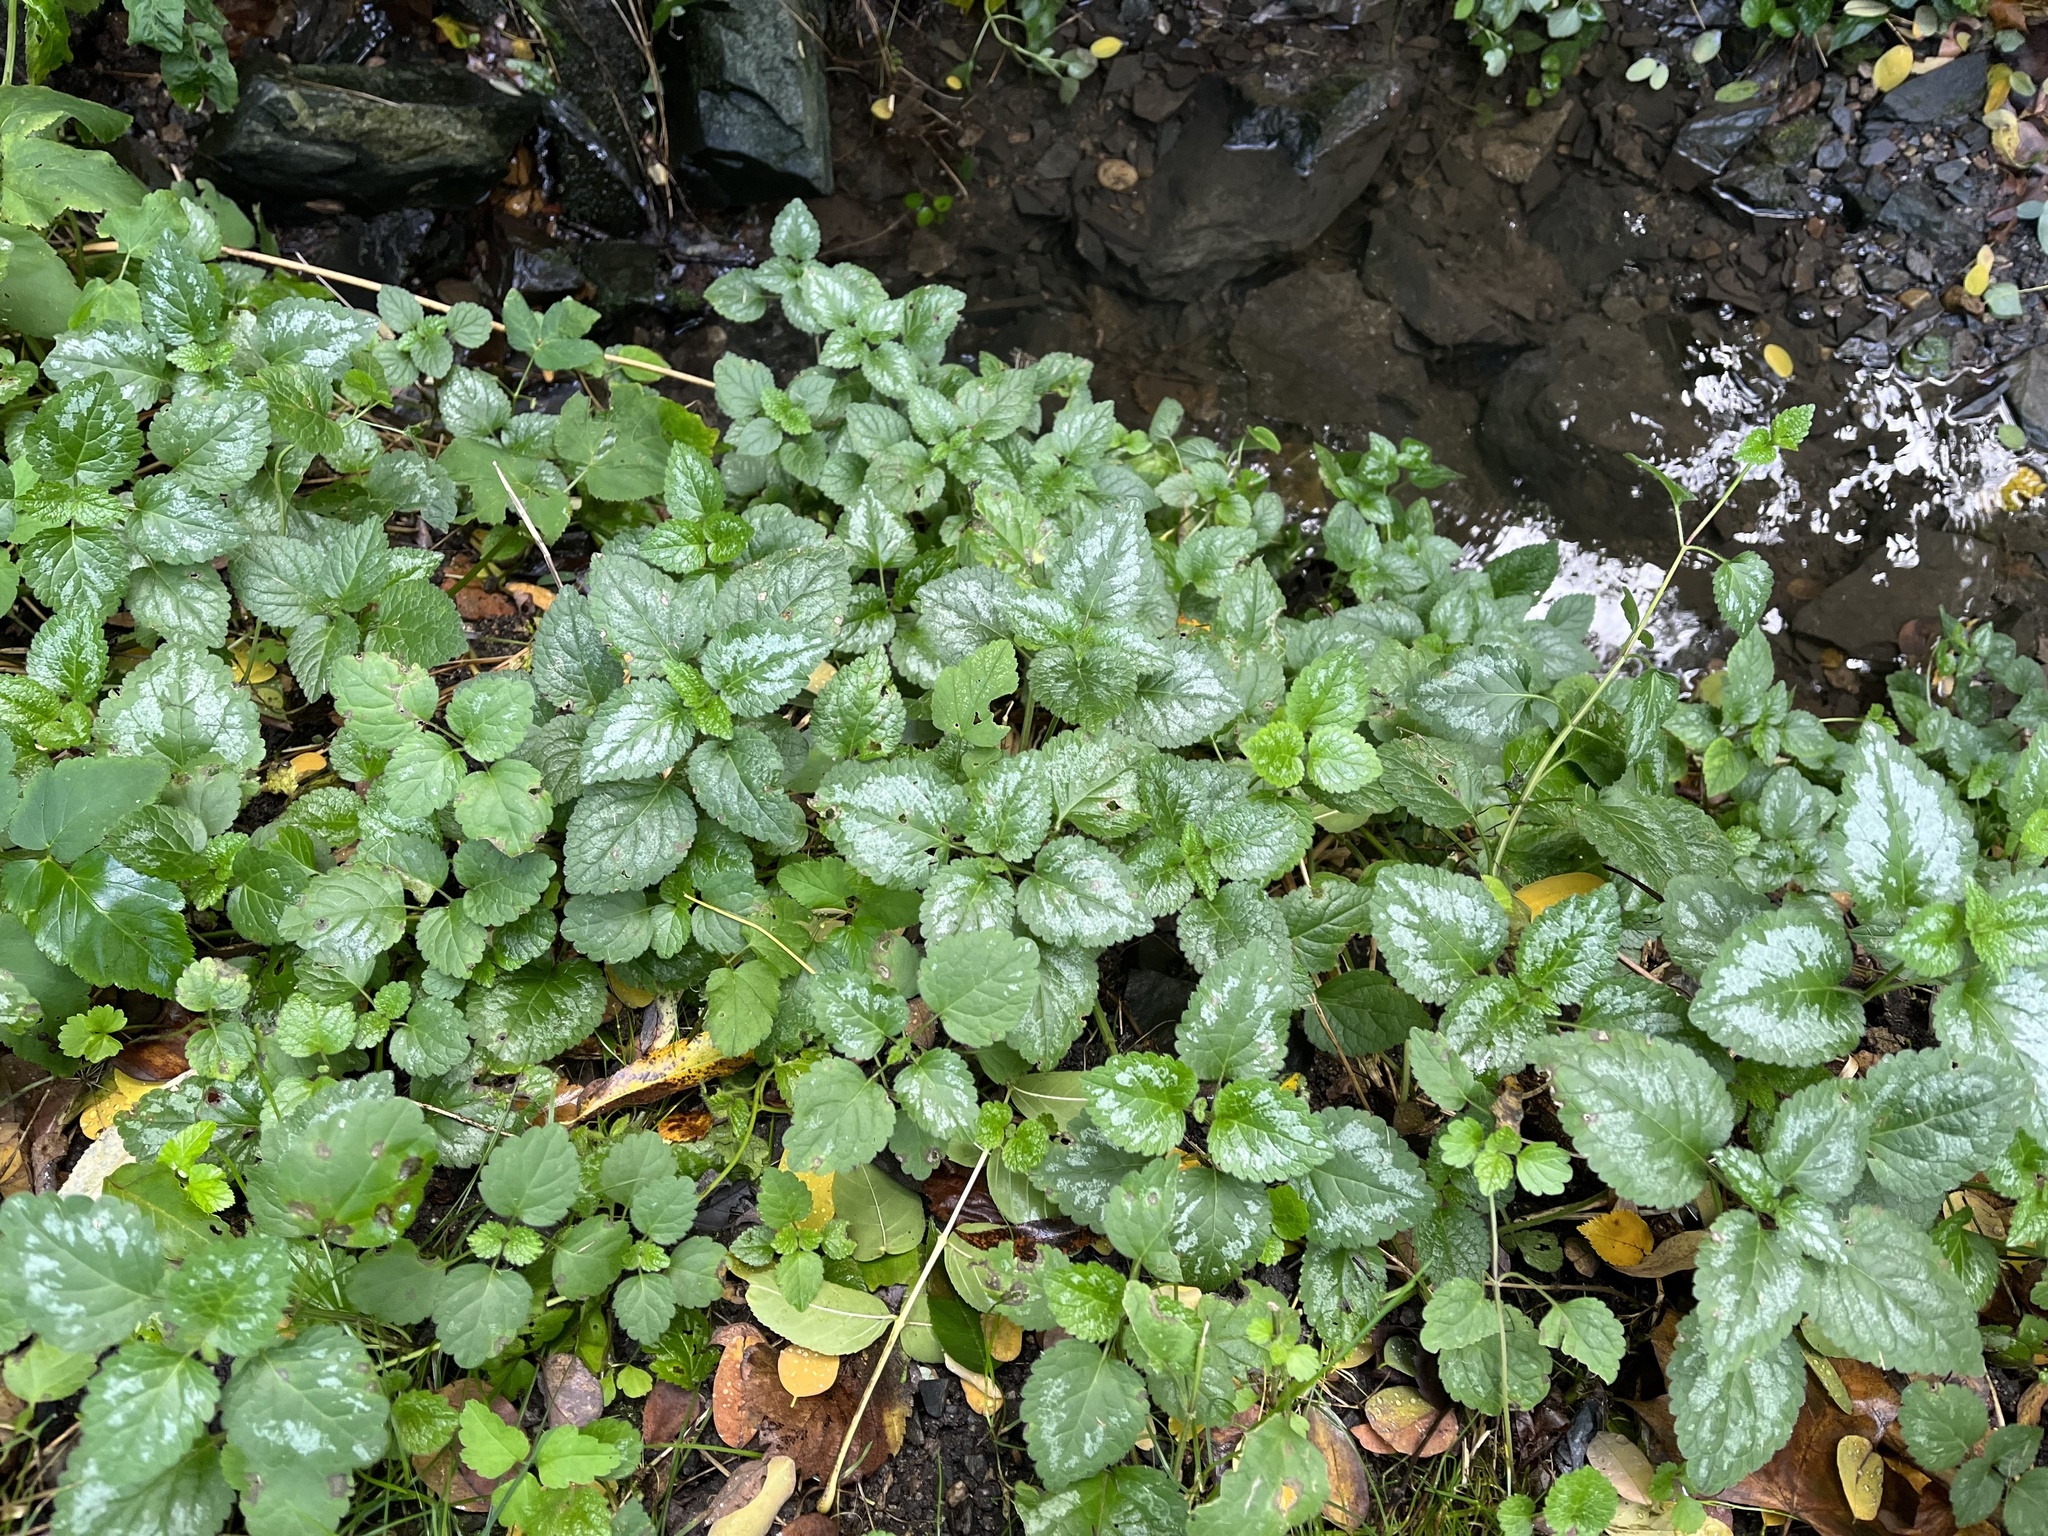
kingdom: Plantae
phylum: Tracheophyta
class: Magnoliopsida
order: Lamiales
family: Lamiaceae
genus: Lamium
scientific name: Lamium galeobdolon
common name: Yellow archangel
